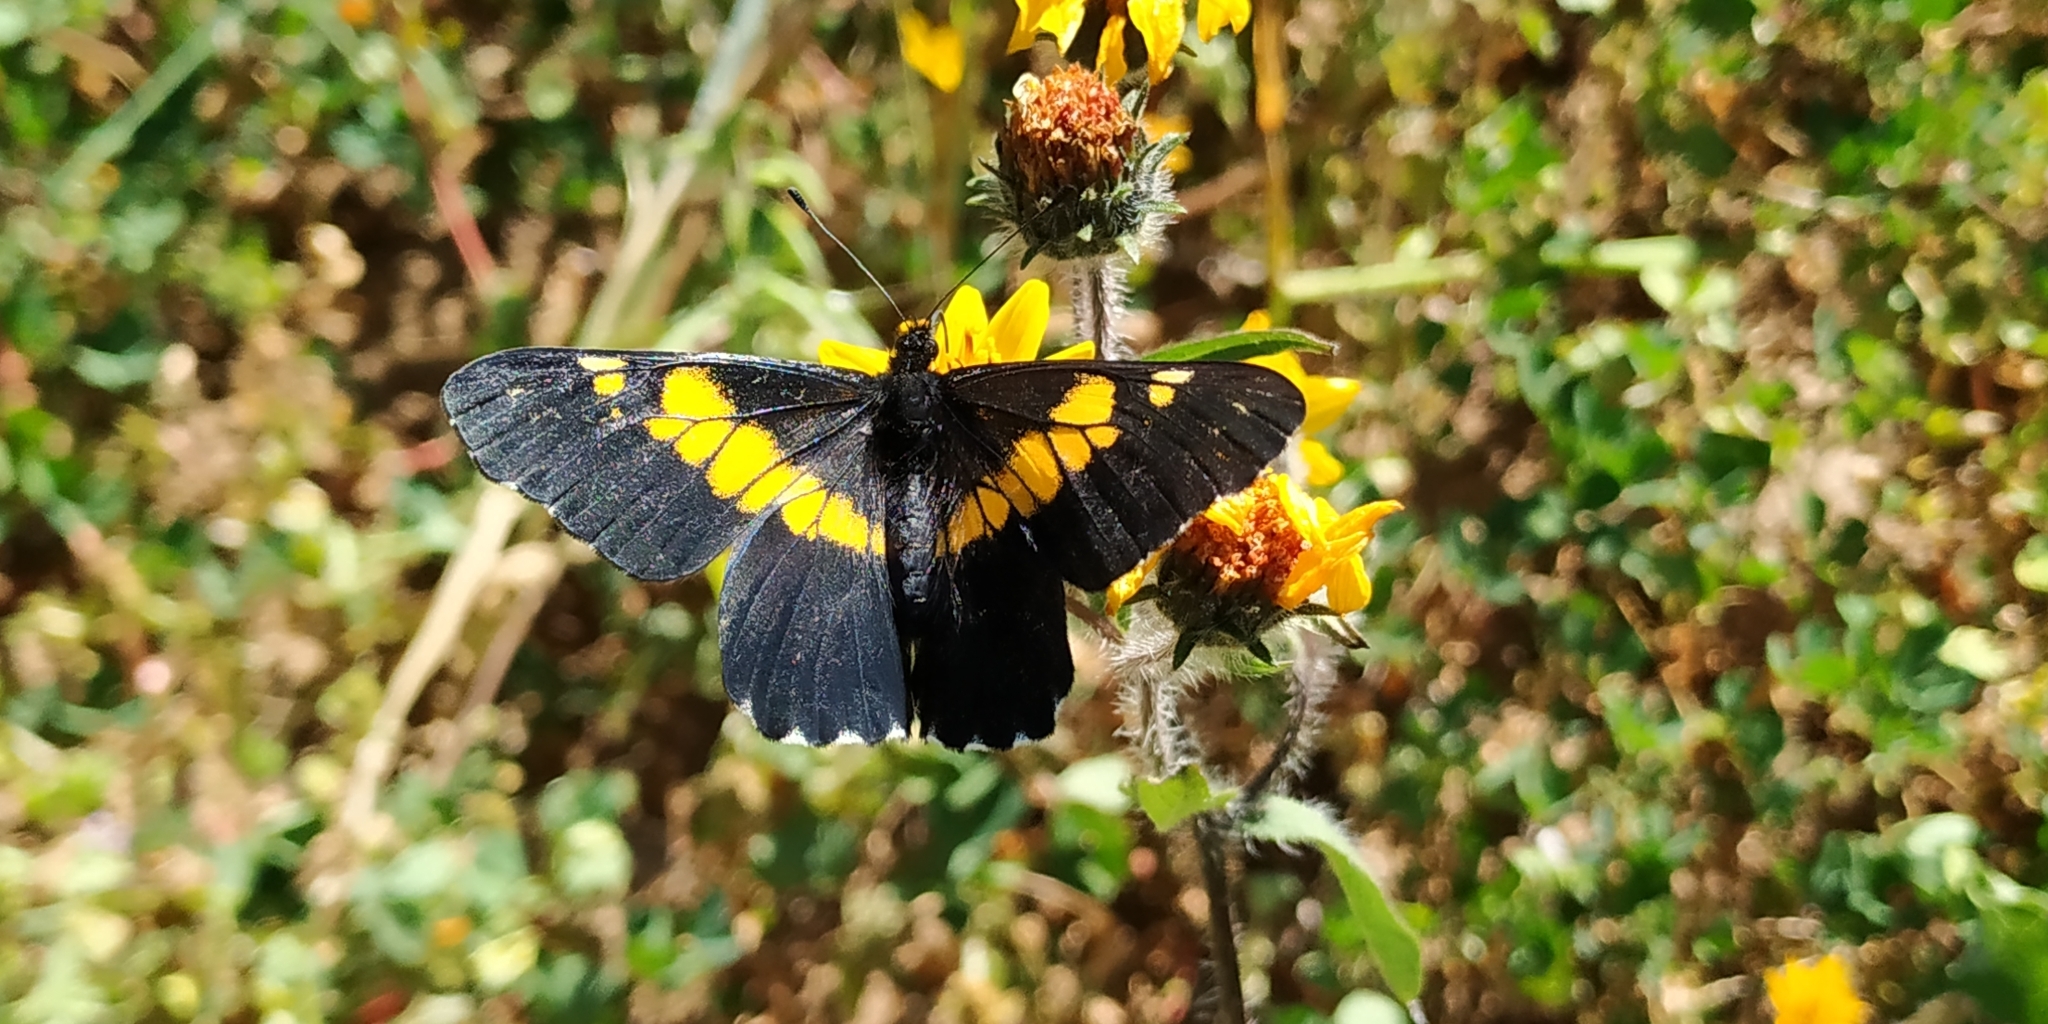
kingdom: Animalia
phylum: Arthropoda
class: Insecta
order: Lepidoptera
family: Pieridae
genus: Archonias
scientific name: Archonias teutila
